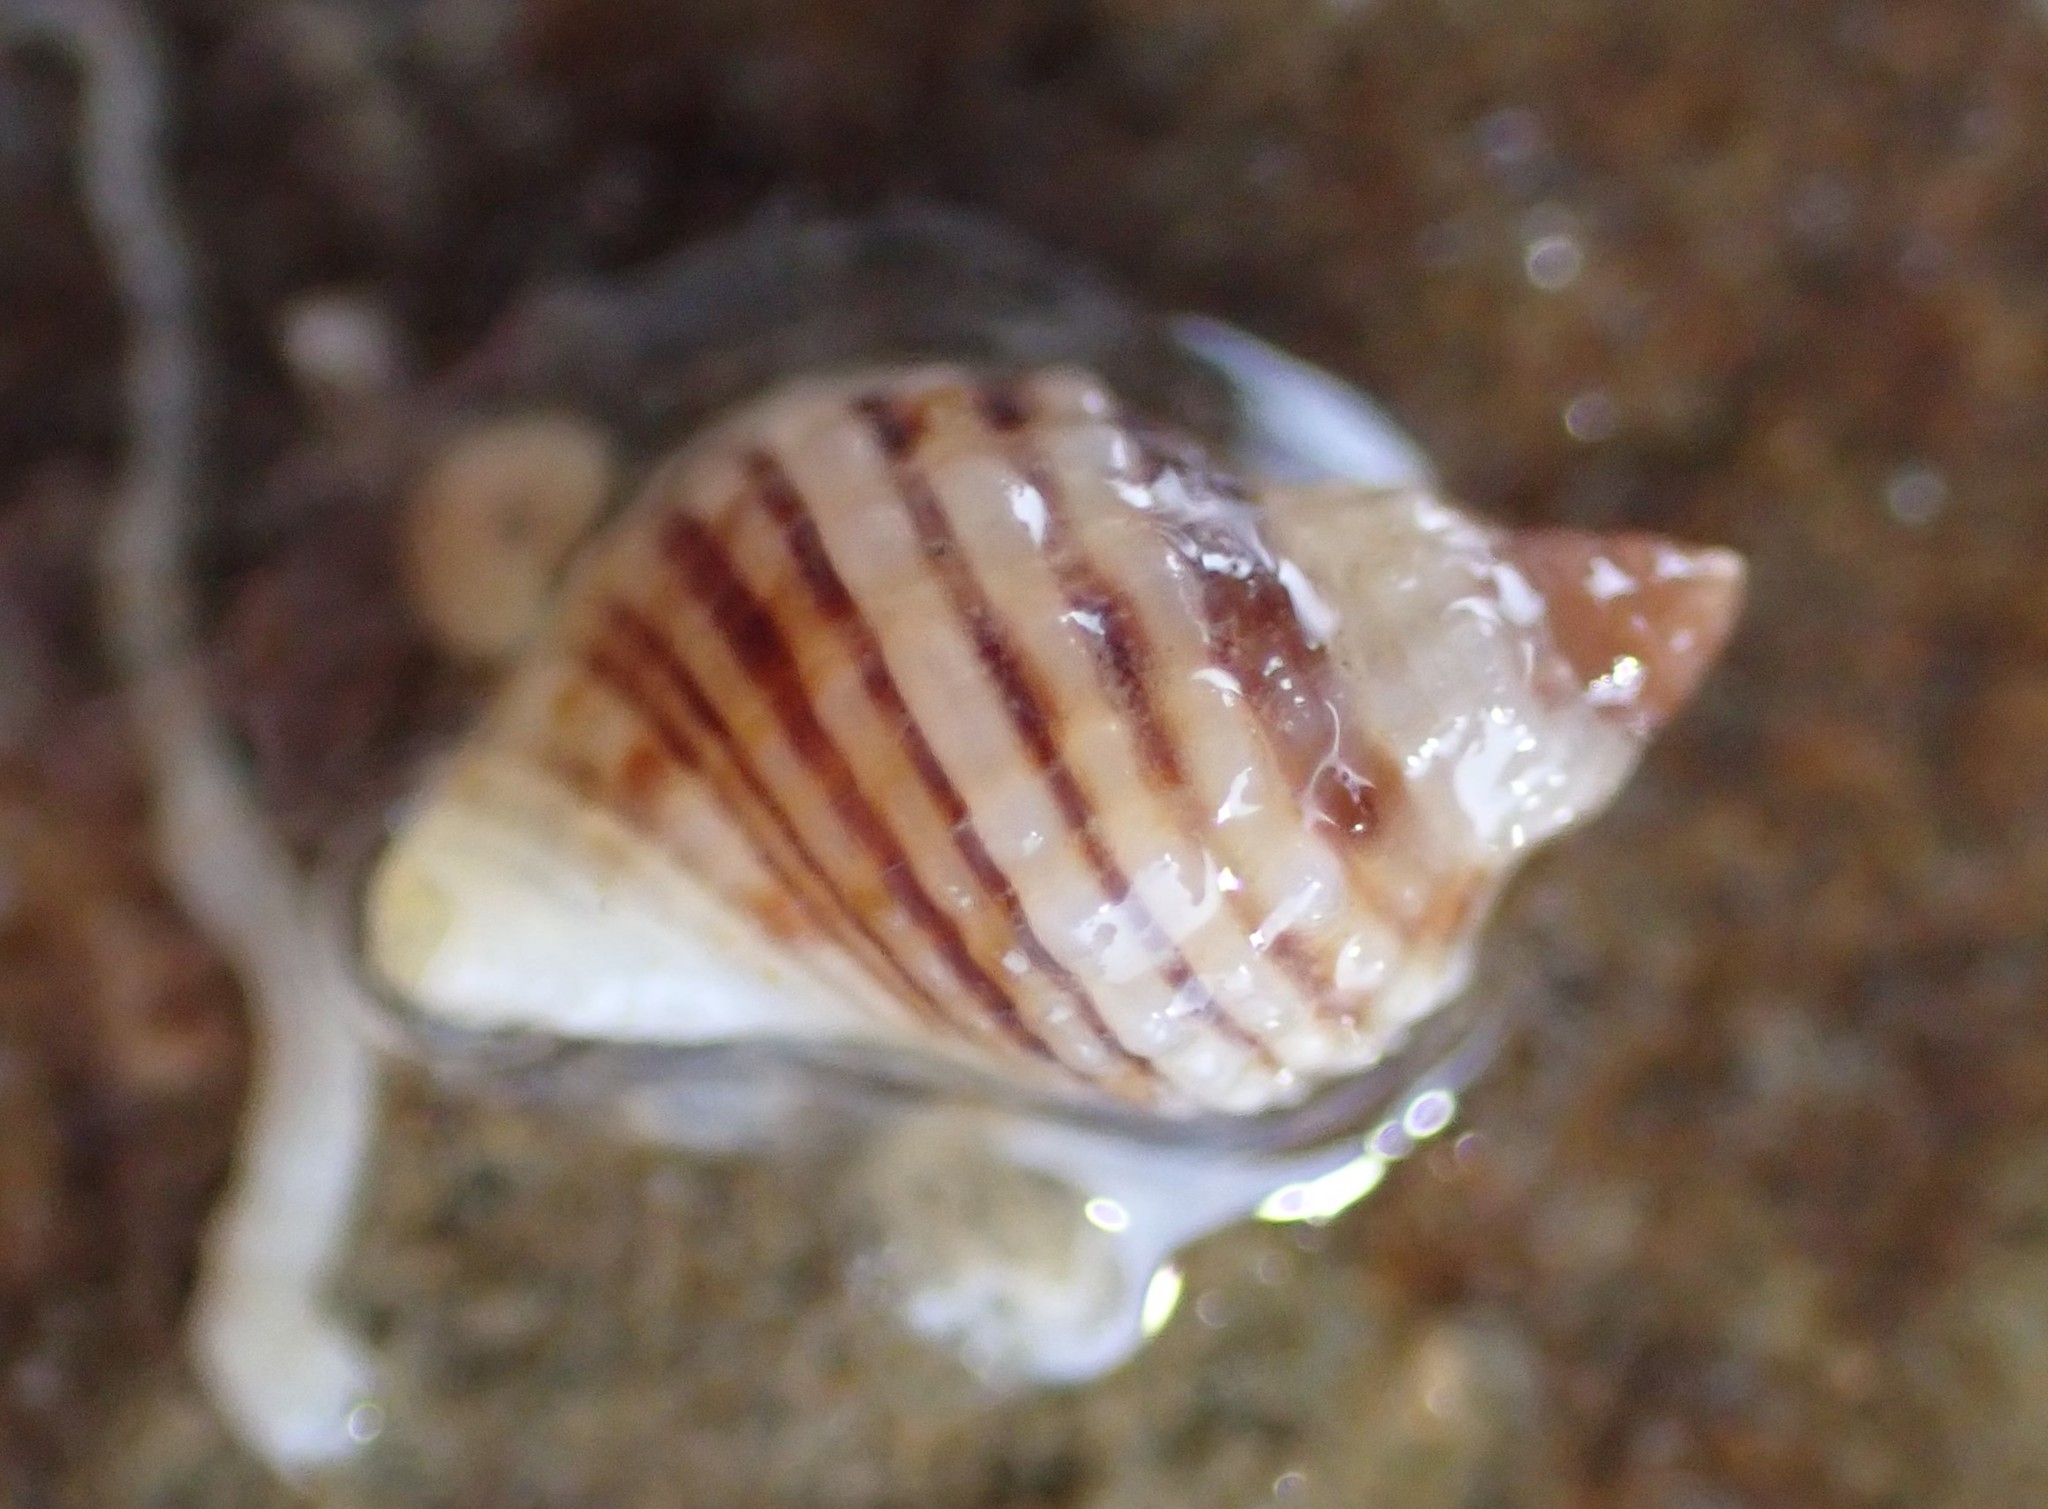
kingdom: Animalia
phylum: Mollusca
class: Gastropoda
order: Neogastropoda
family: Muricidae
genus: Dicathais
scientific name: Dicathais orbita
